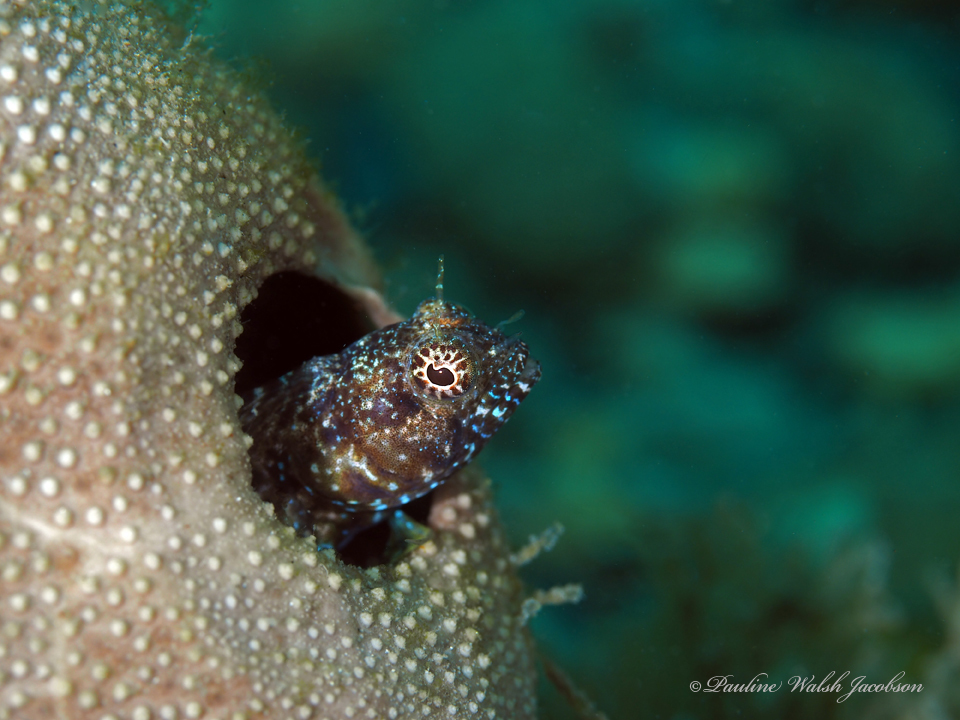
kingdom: Animalia
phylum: Chordata
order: Perciformes
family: Chaenopsidae
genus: Emblemaria
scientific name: Emblemaria pandionis
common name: Sailfin blenny
